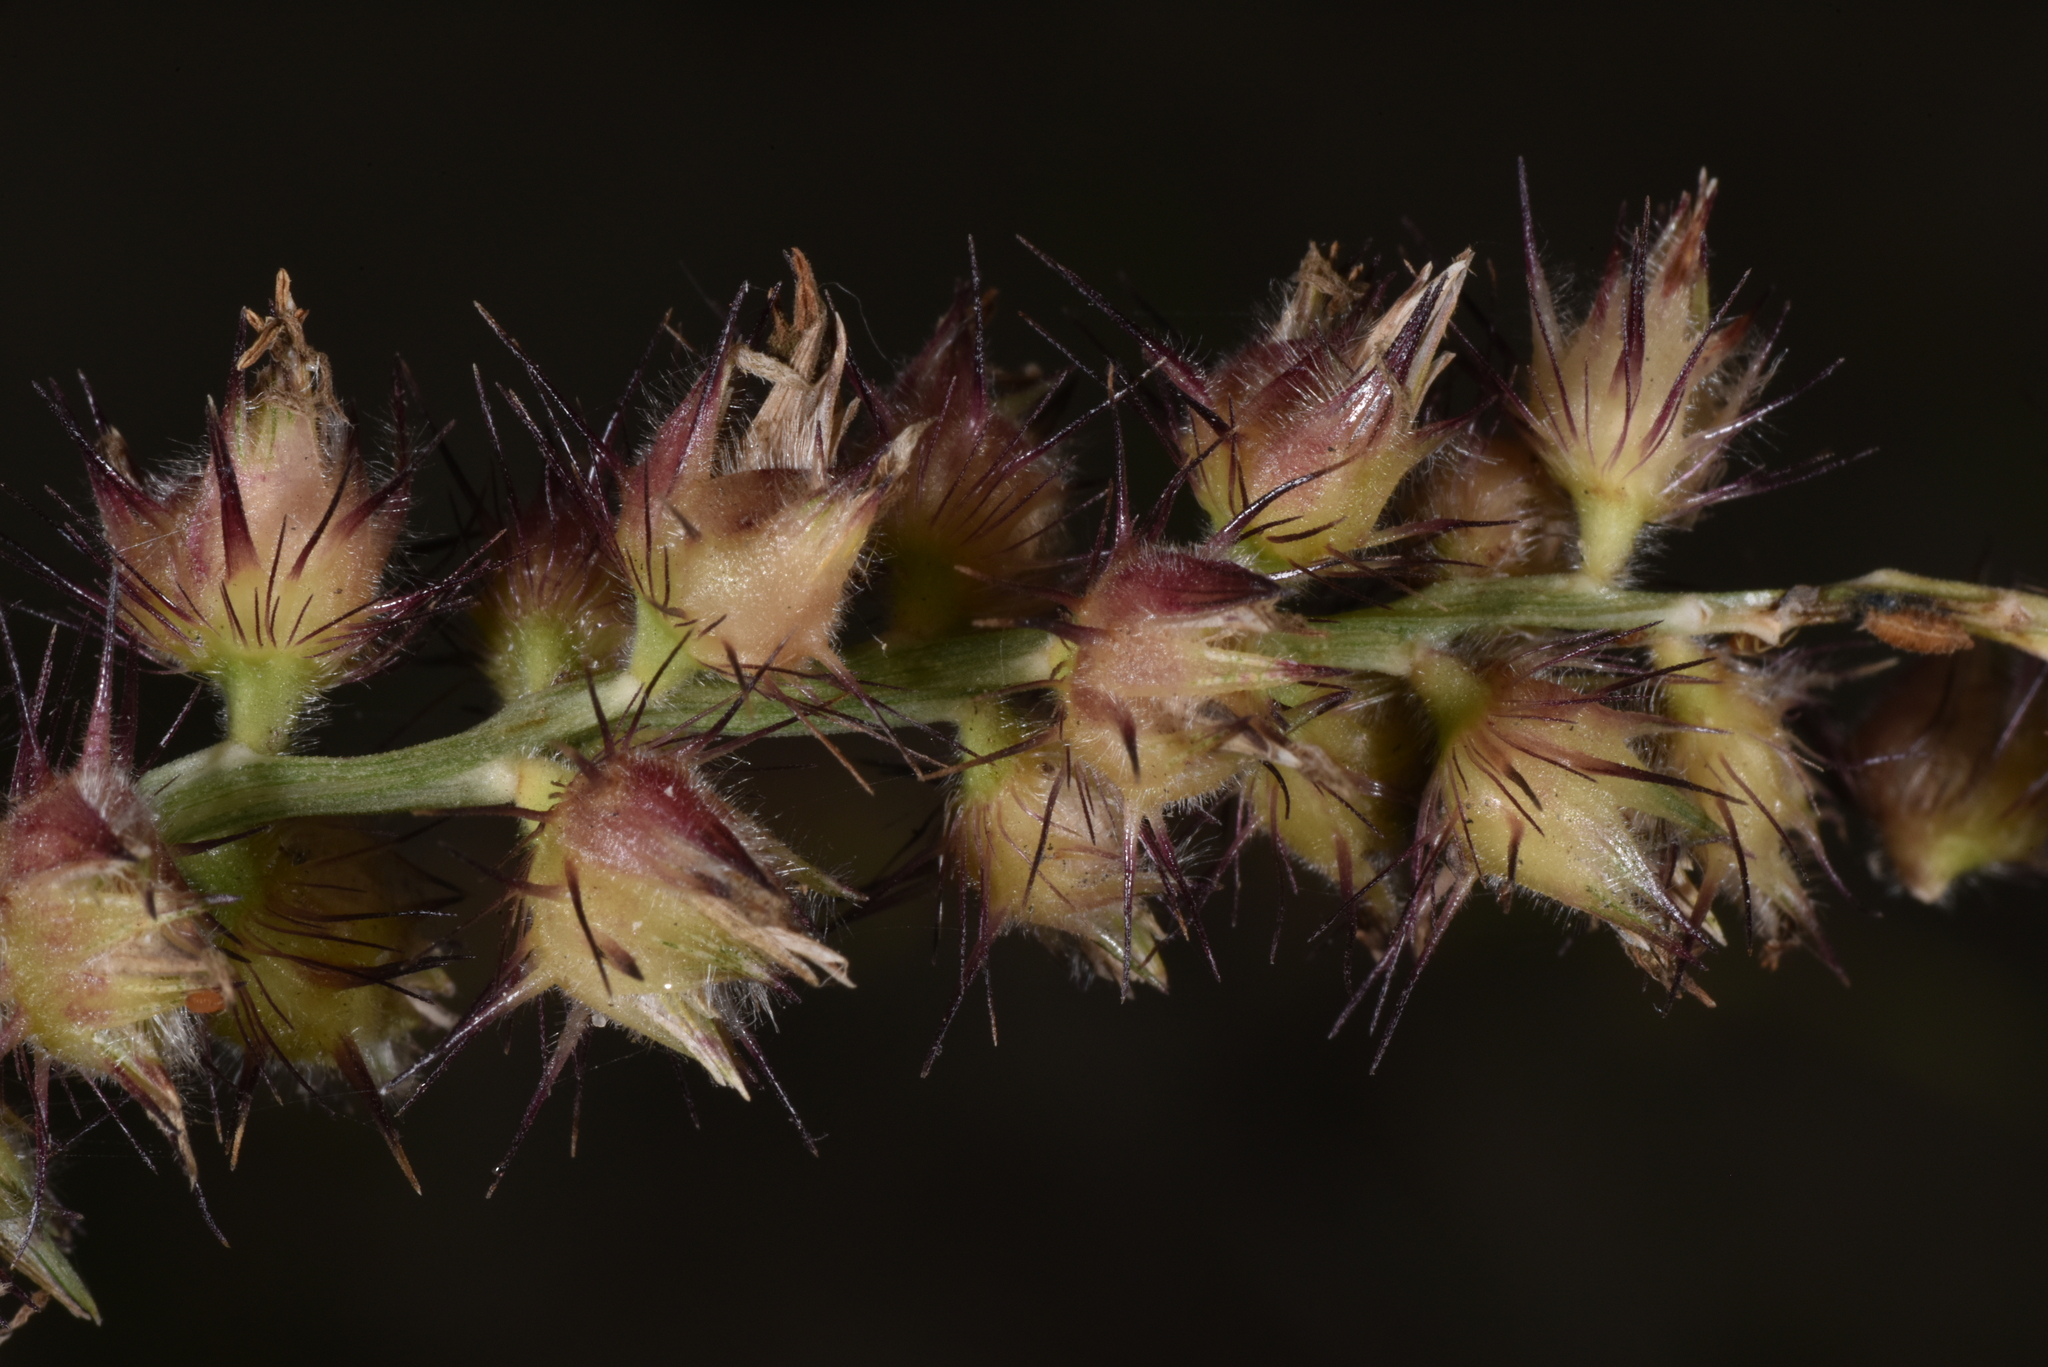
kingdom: Plantae
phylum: Tracheophyta
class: Liliopsida
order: Poales
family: Poaceae
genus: Cenchrus
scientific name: Cenchrus echinatus
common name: Southern sandbur
